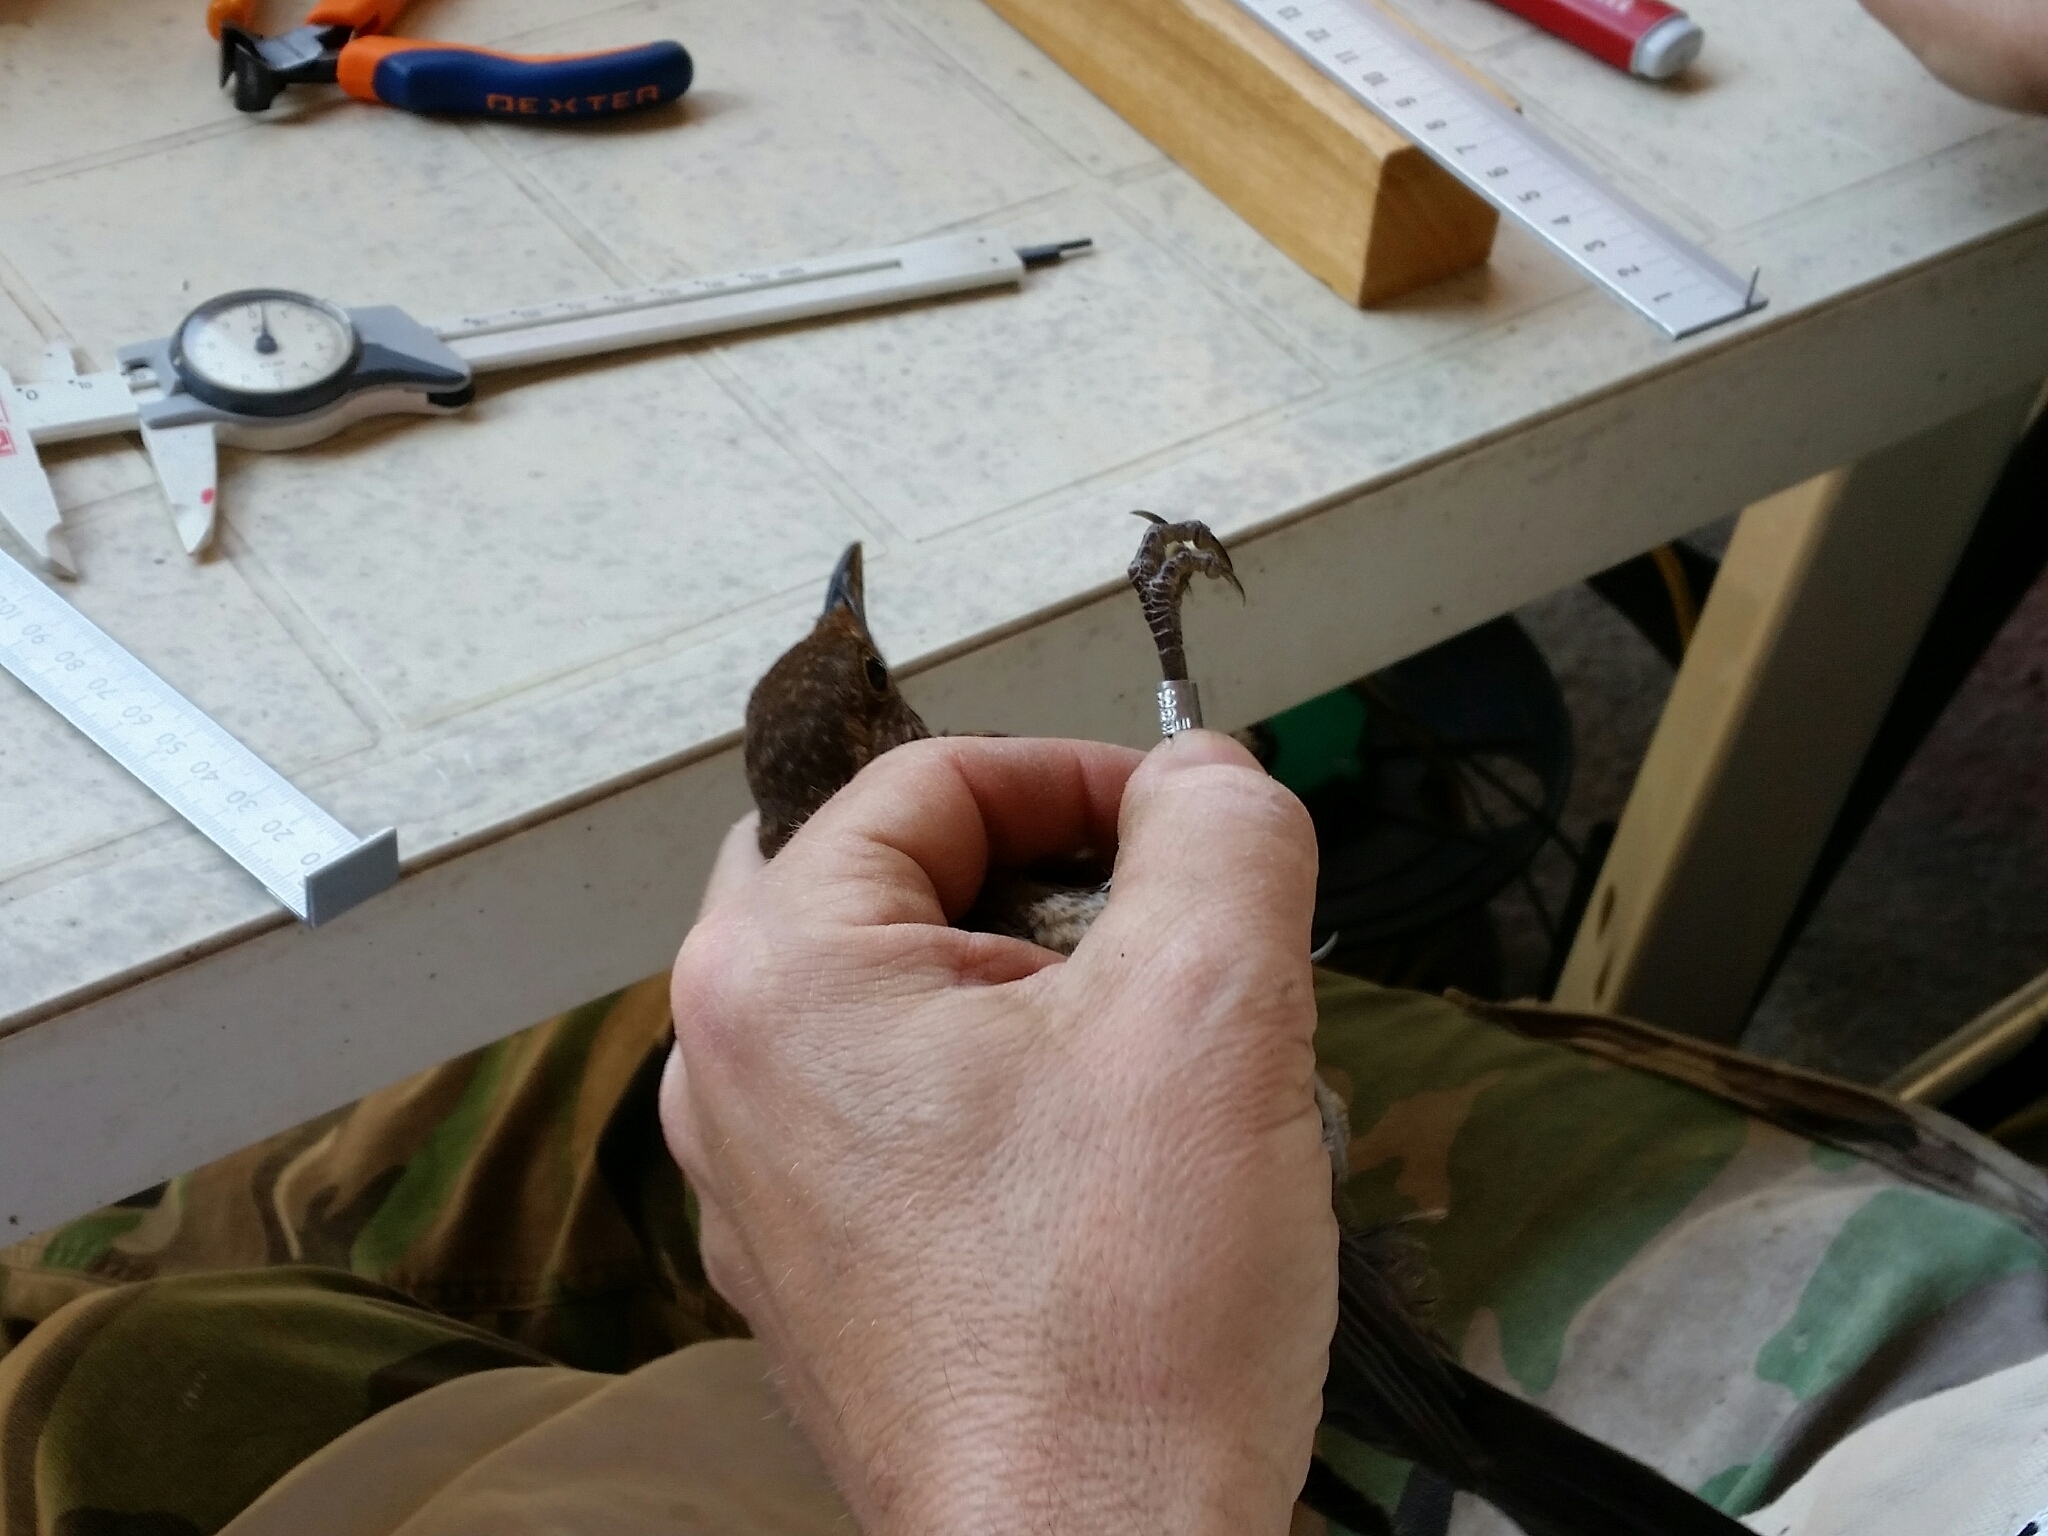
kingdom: Animalia
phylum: Chordata
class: Aves
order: Passeriformes
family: Turdidae
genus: Turdus
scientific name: Turdus merula
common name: Common blackbird
